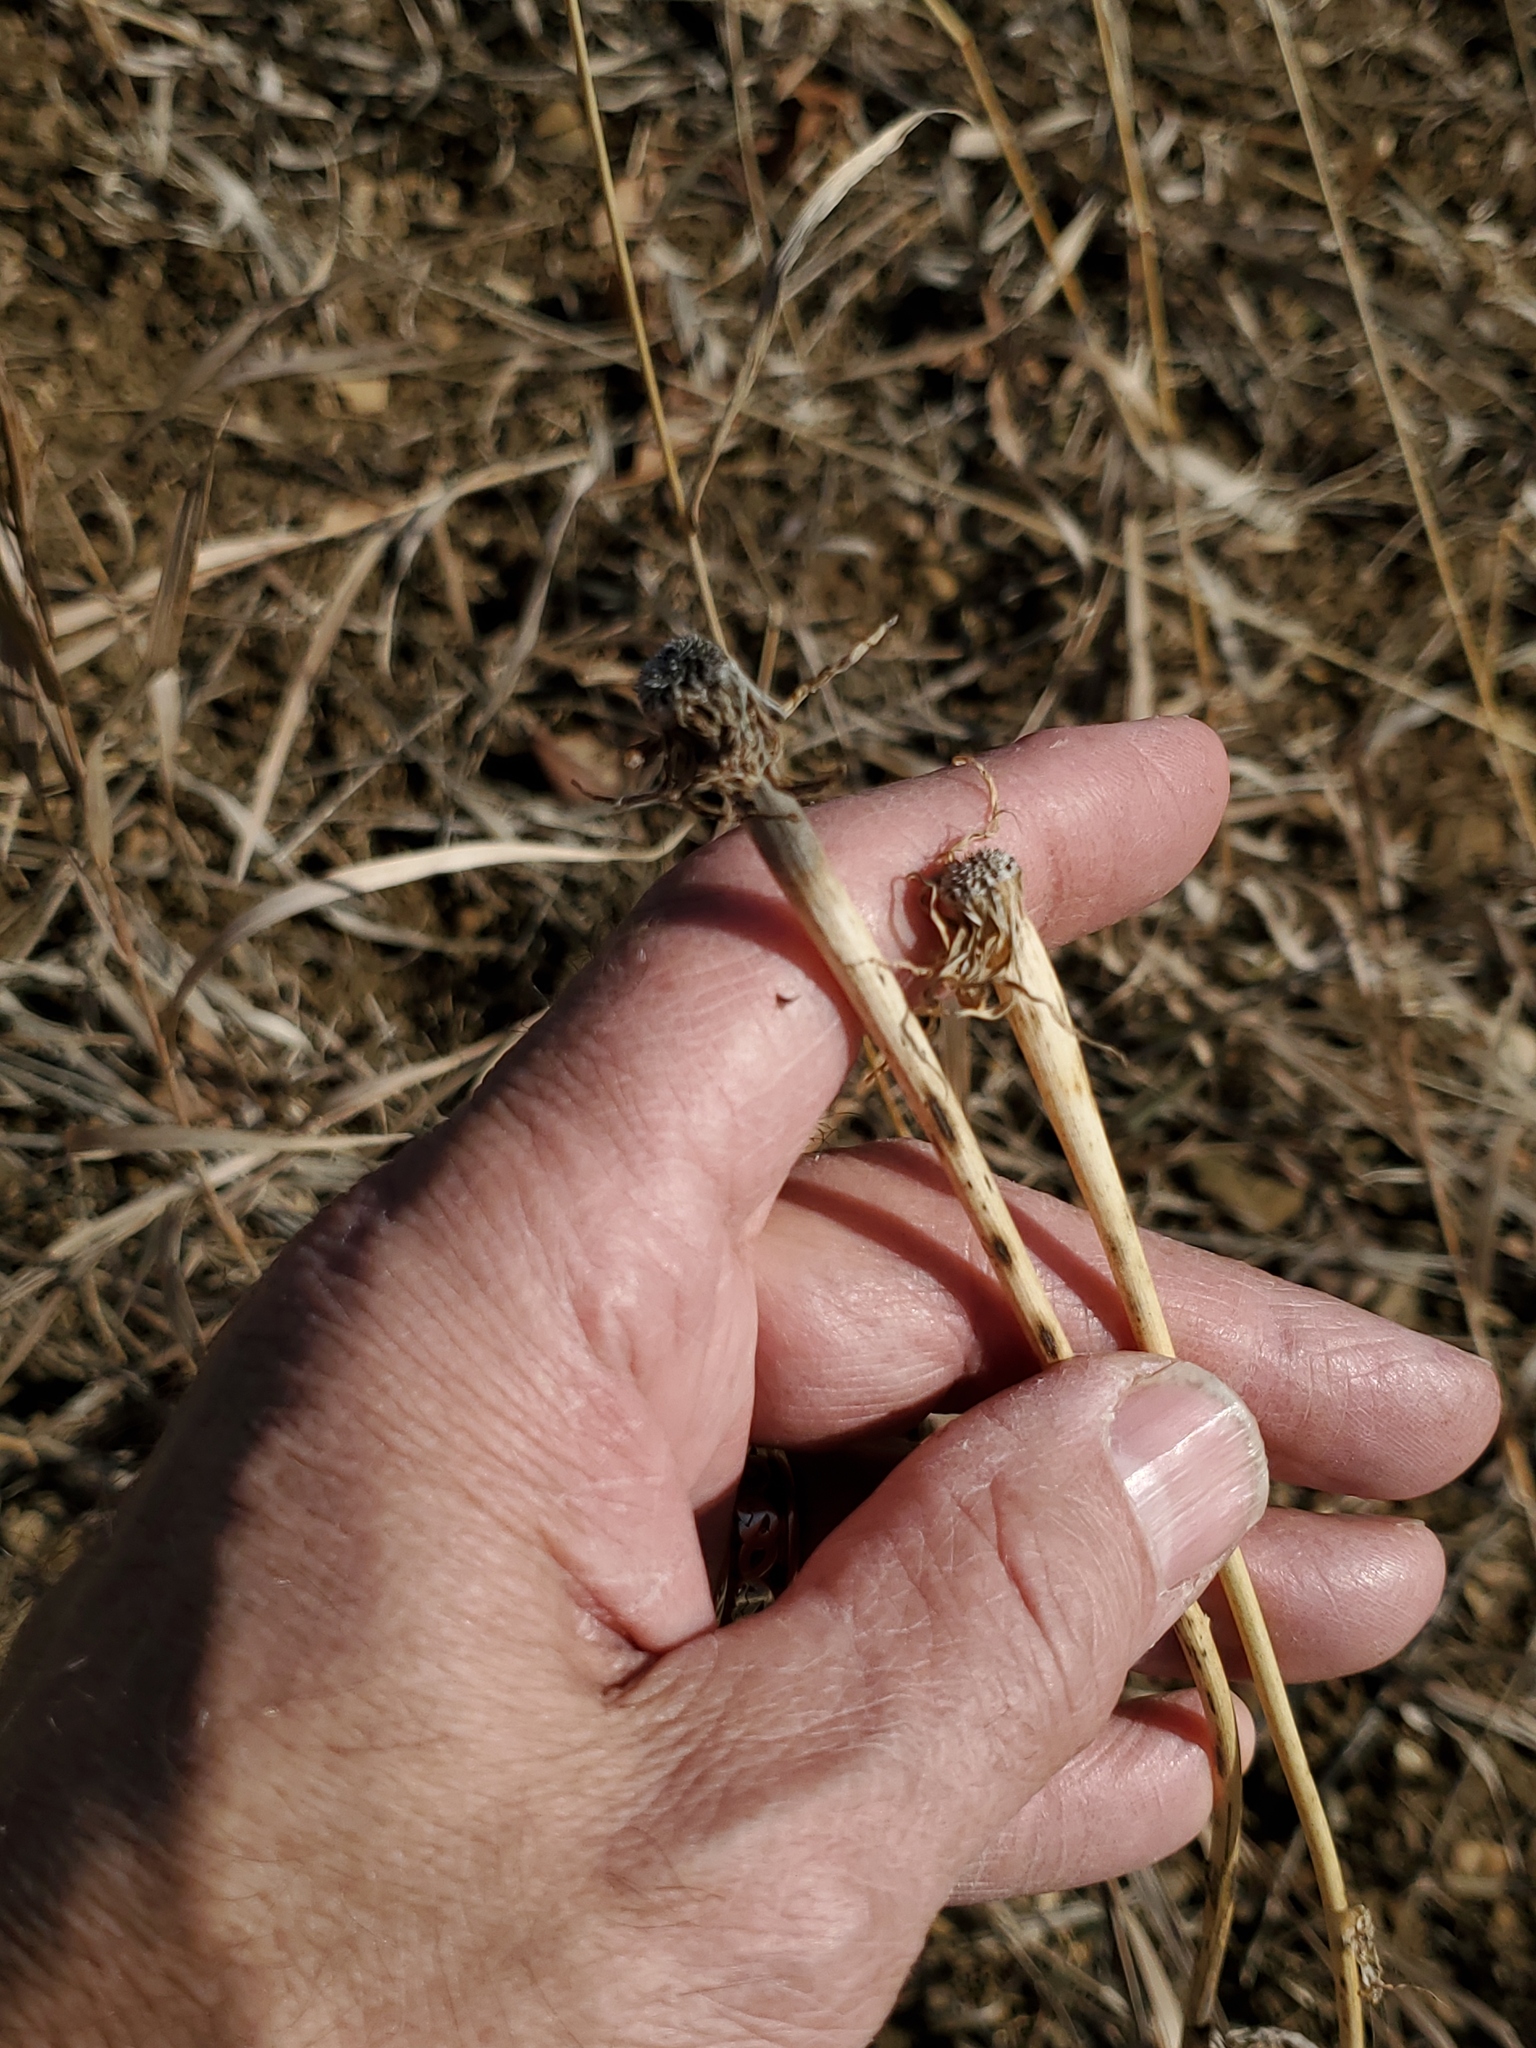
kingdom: Plantae
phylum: Tracheophyta
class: Magnoliopsida
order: Asterales
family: Asteraceae
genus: Tragopogon
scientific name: Tragopogon dubius
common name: Yellow salsify
